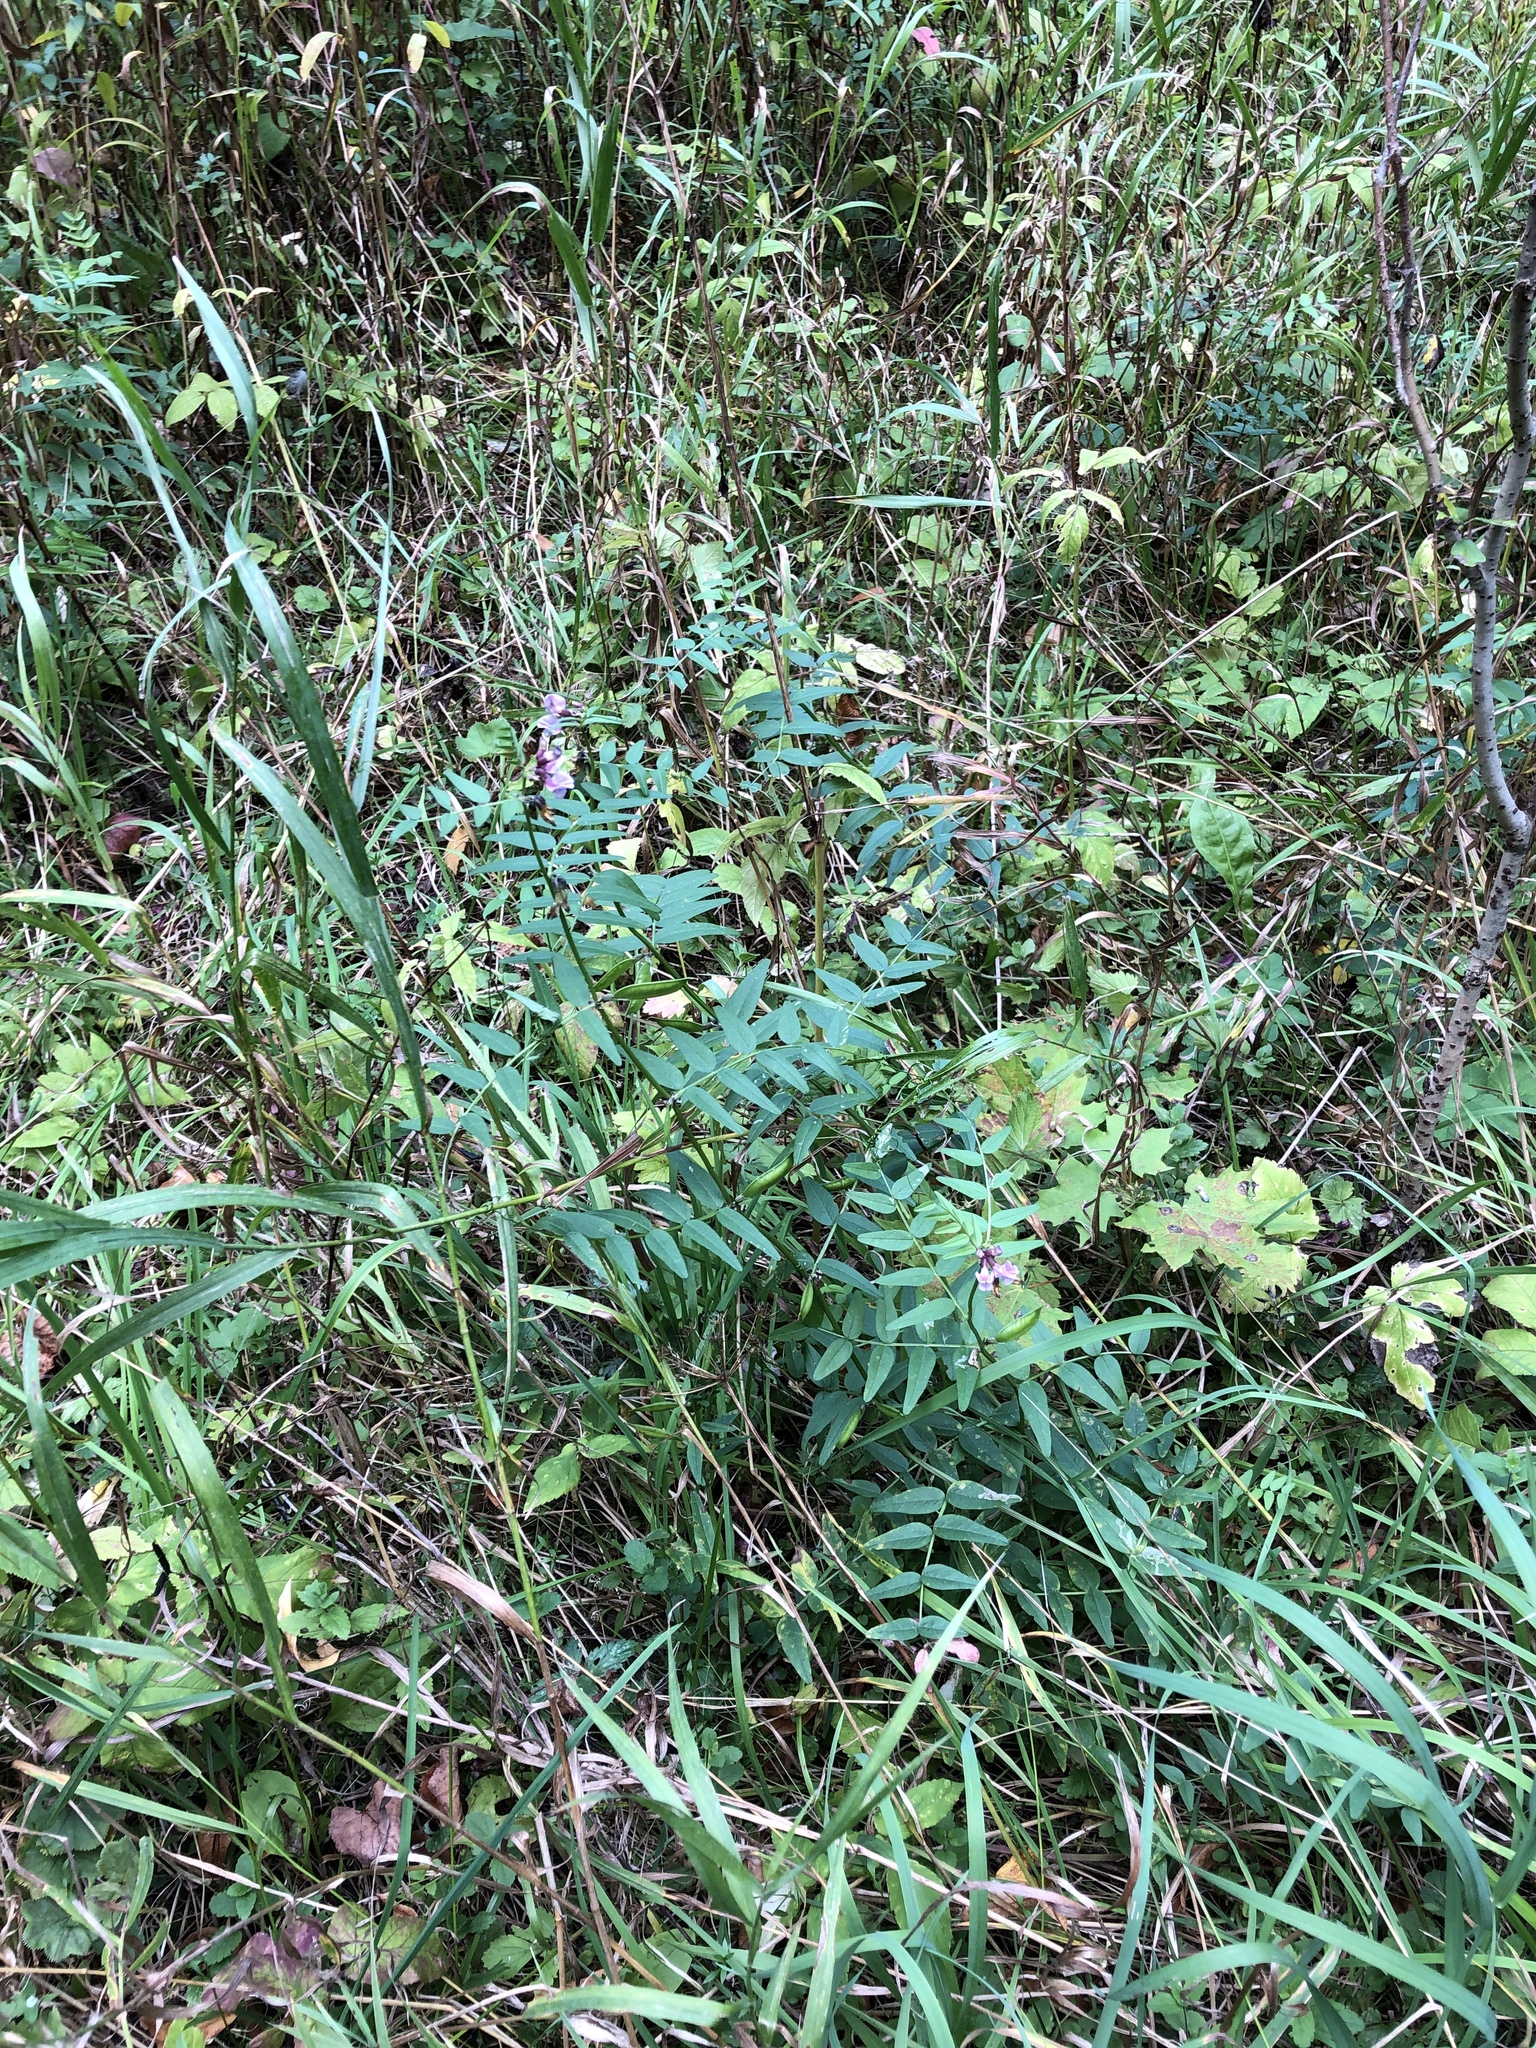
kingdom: Plantae
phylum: Tracheophyta
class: Magnoliopsida
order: Fabales
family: Fabaceae
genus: Vicia
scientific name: Vicia sepium
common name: Bush vetch
